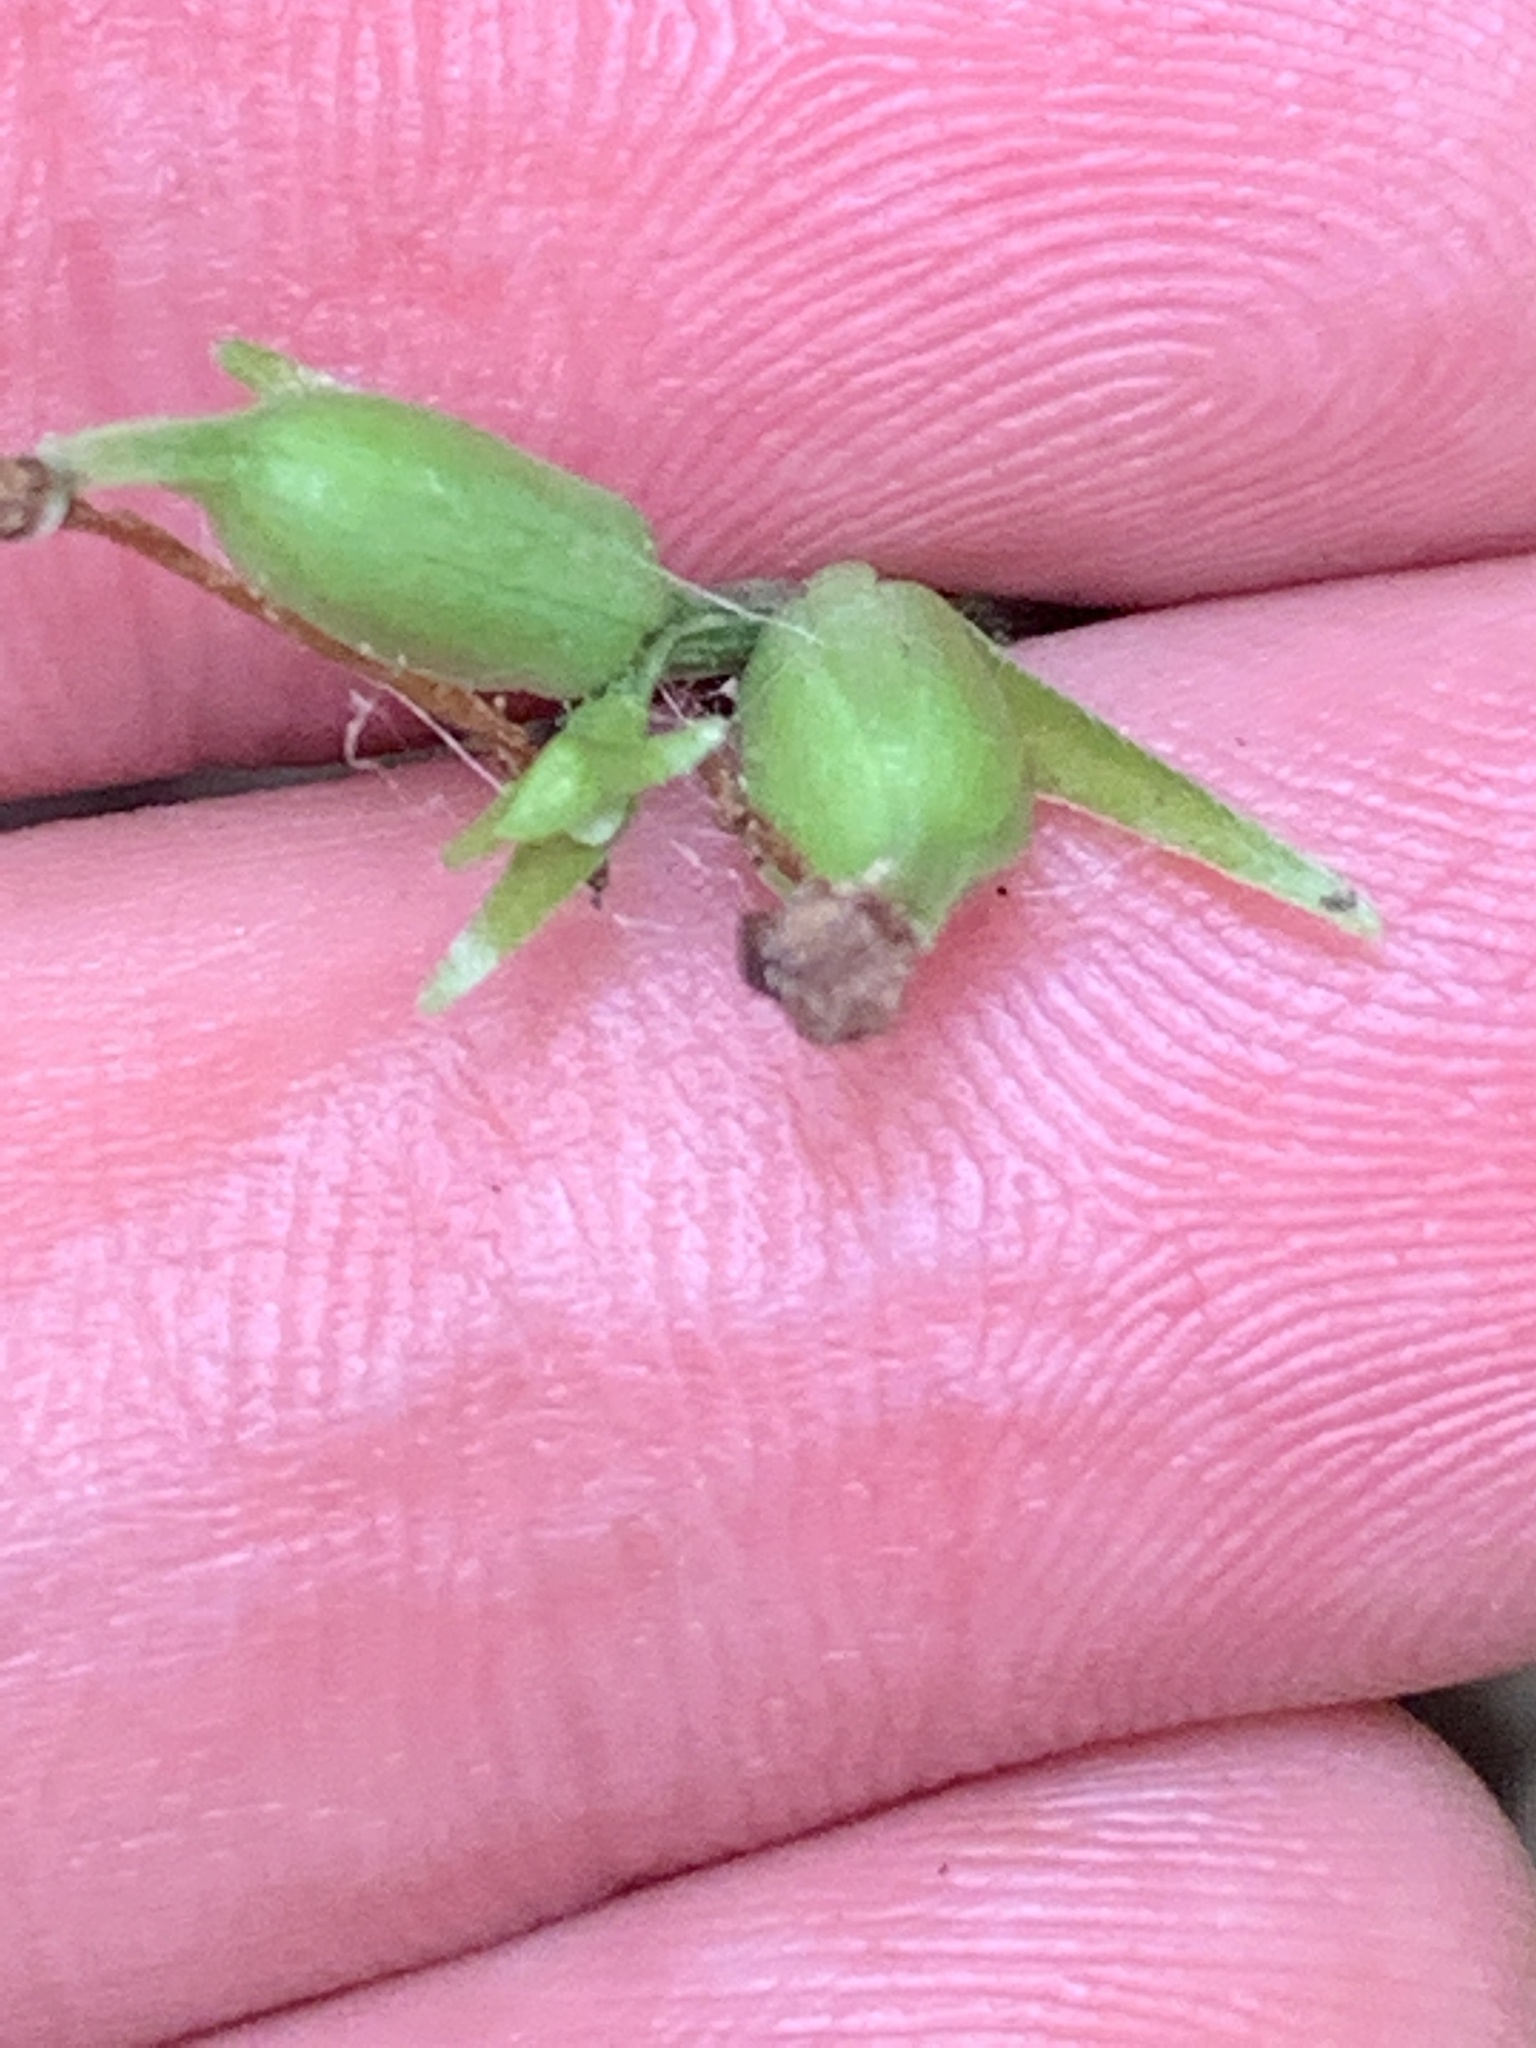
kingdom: Plantae
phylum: Tracheophyta
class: Liliopsida
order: Asparagales
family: Orchidaceae
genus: Platanthera
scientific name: Platanthera clavellata
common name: Club-spur orchid
